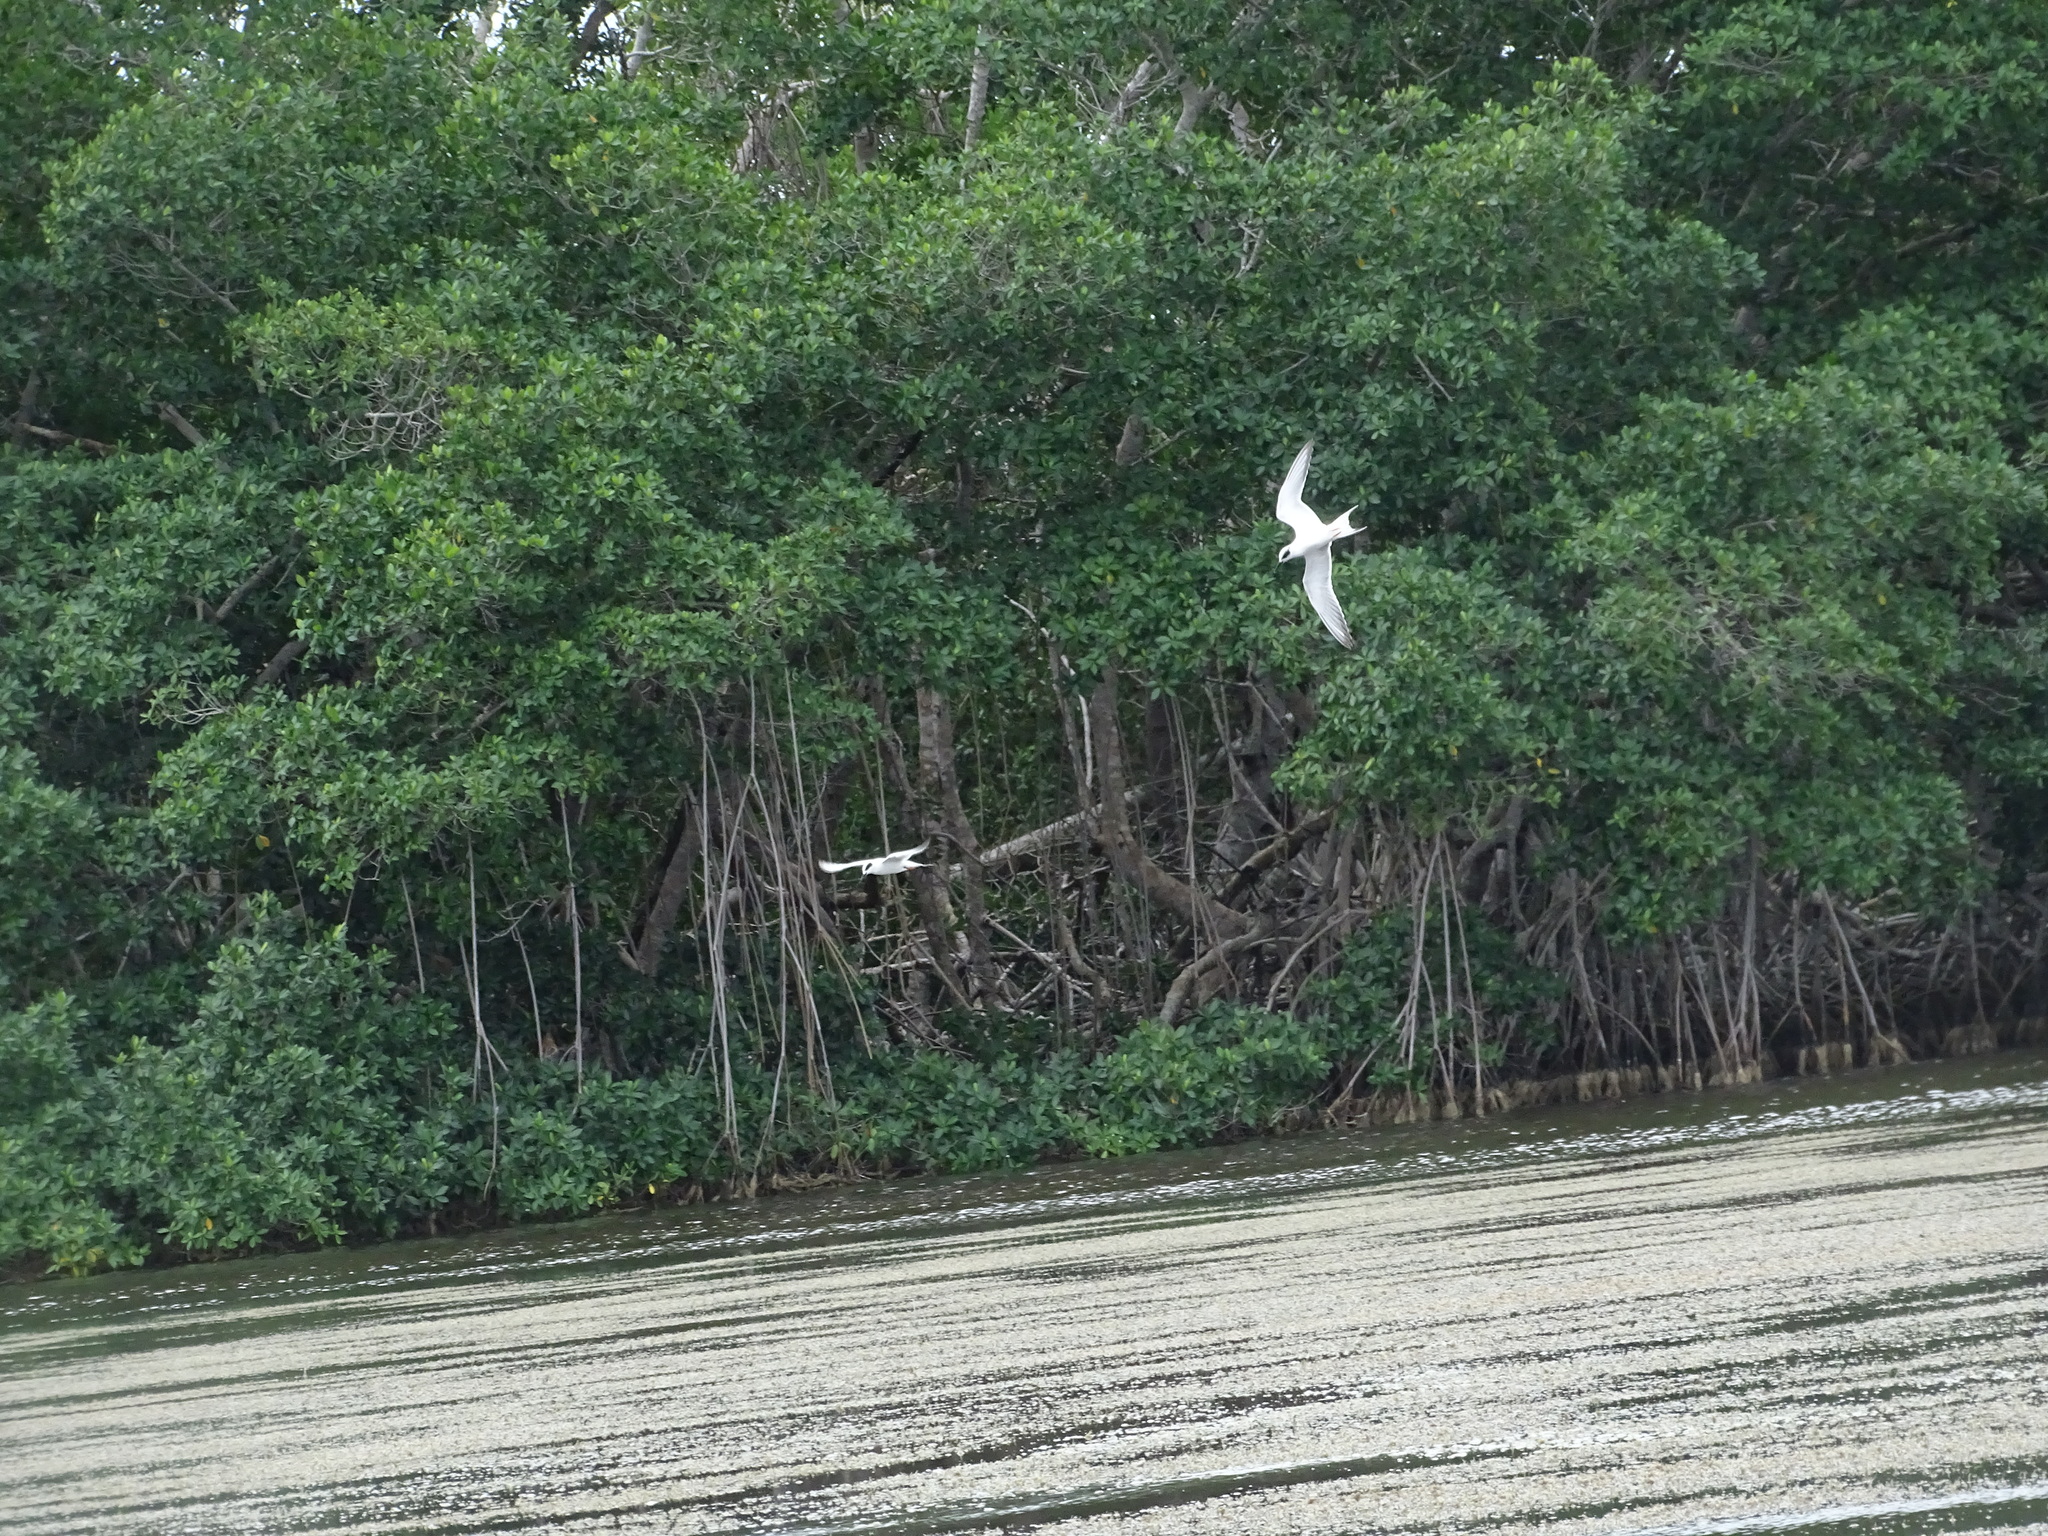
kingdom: Animalia
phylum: Chordata
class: Aves
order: Charadriiformes
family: Laridae
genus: Sterna
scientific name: Sterna forsteri
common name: Forster's tern
